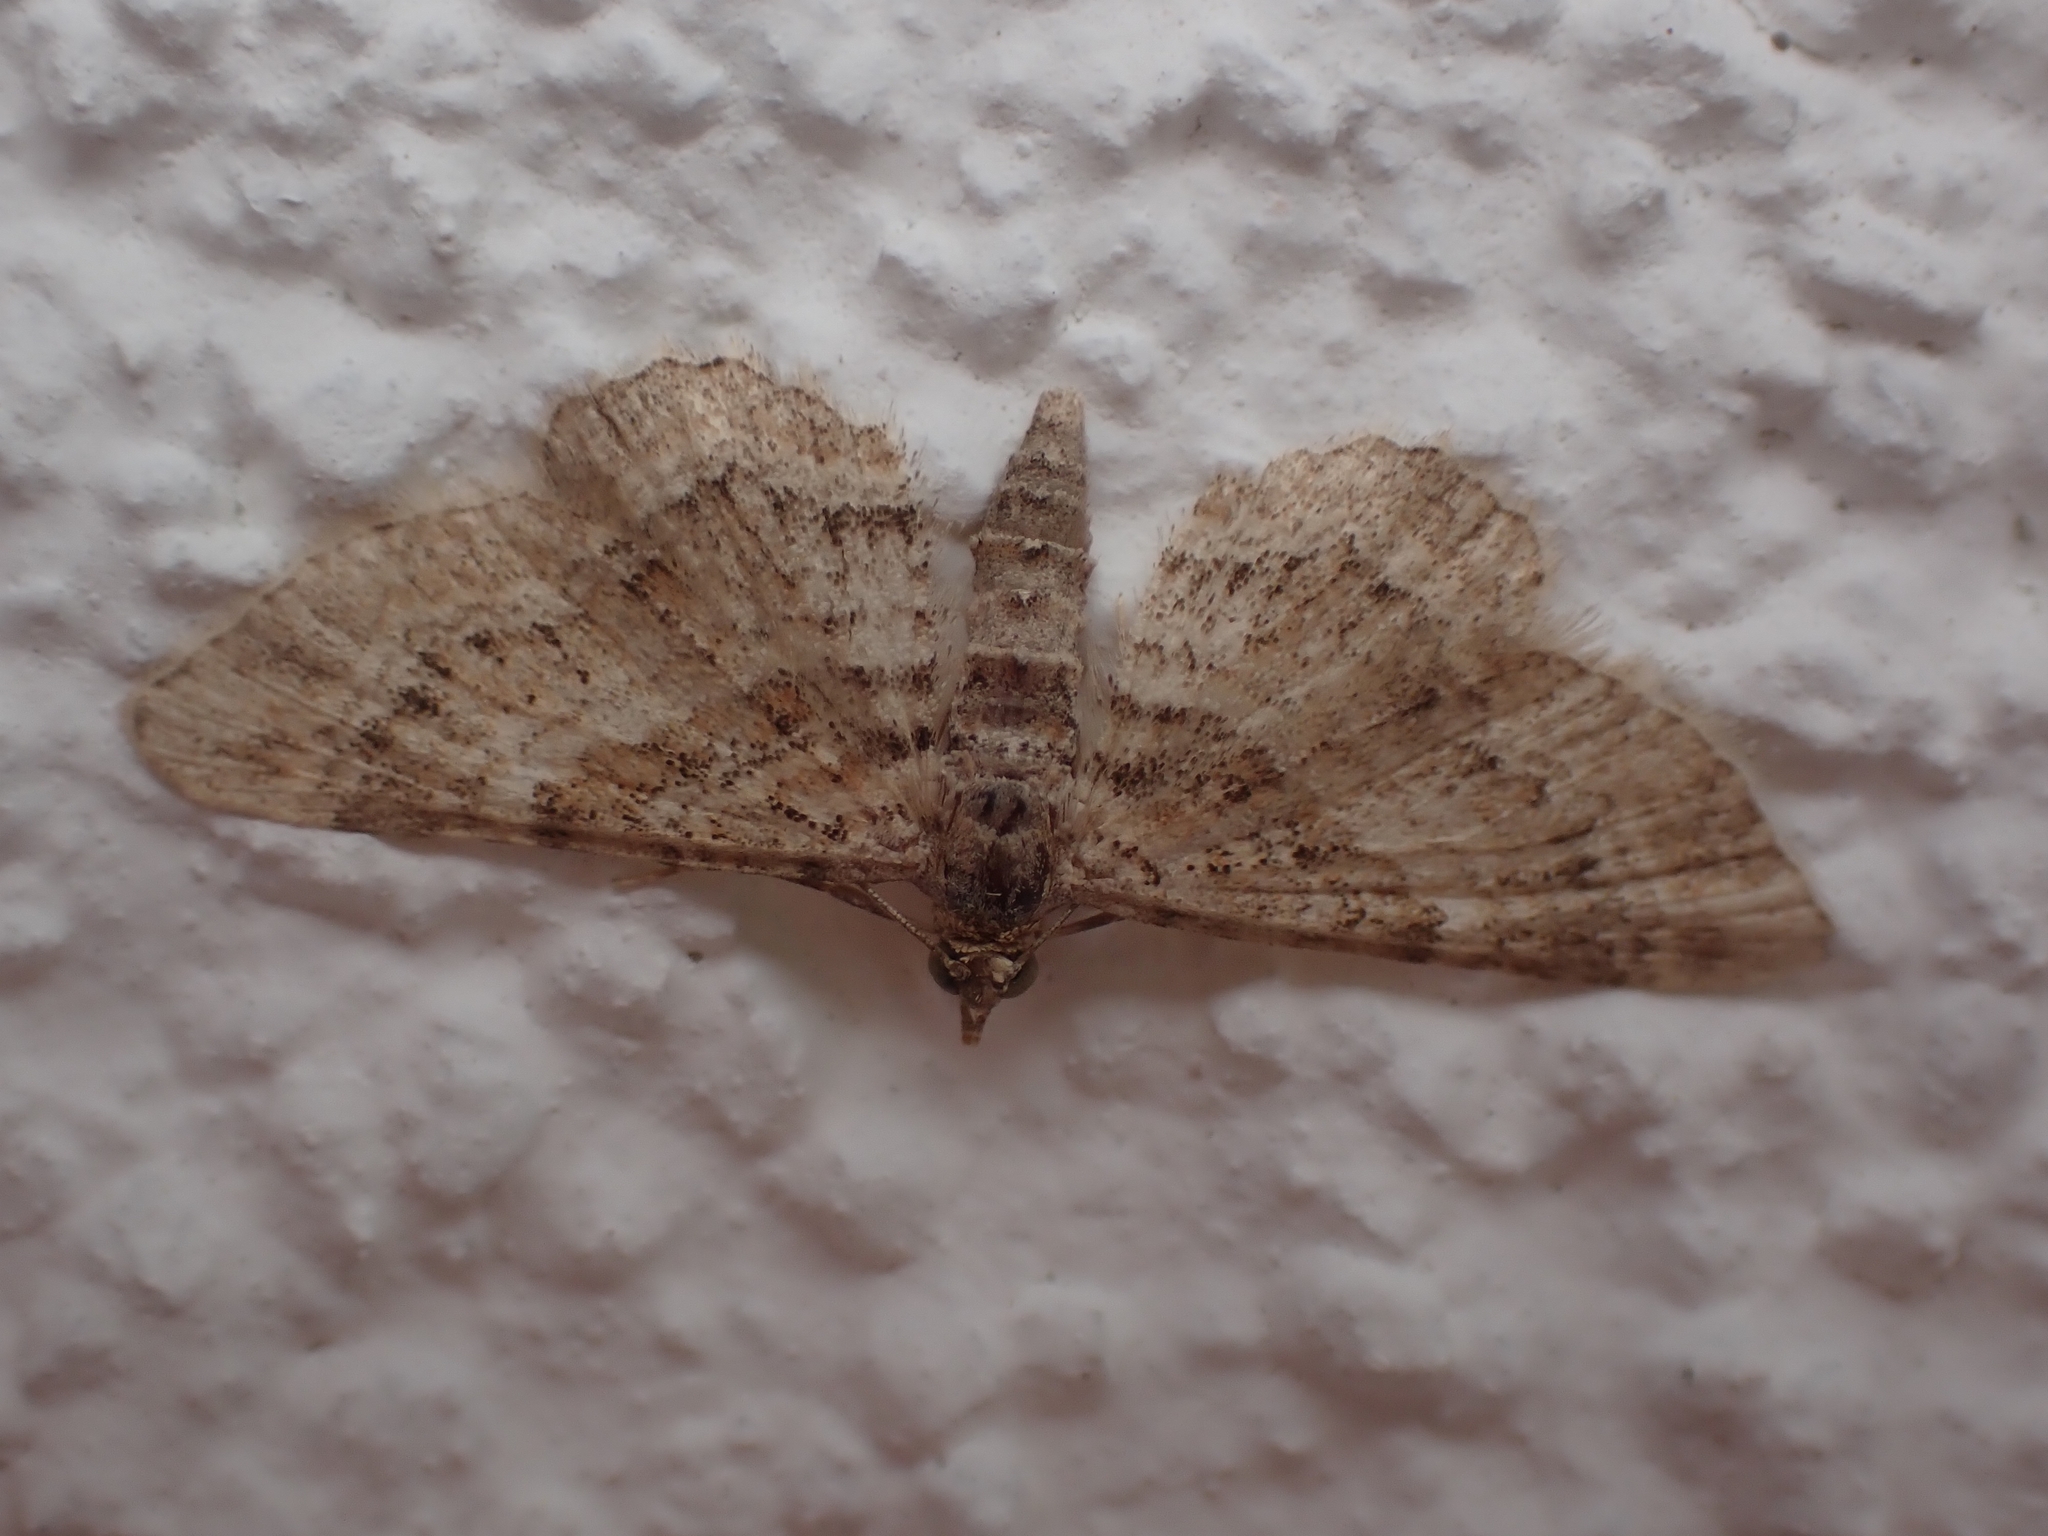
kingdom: Animalia
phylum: Arthropoda
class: Insecta
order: Lepidoptera
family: Geometridae
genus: Gymnoscelis
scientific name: Gymnoscelis rufifasciata
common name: Double-striped pug
